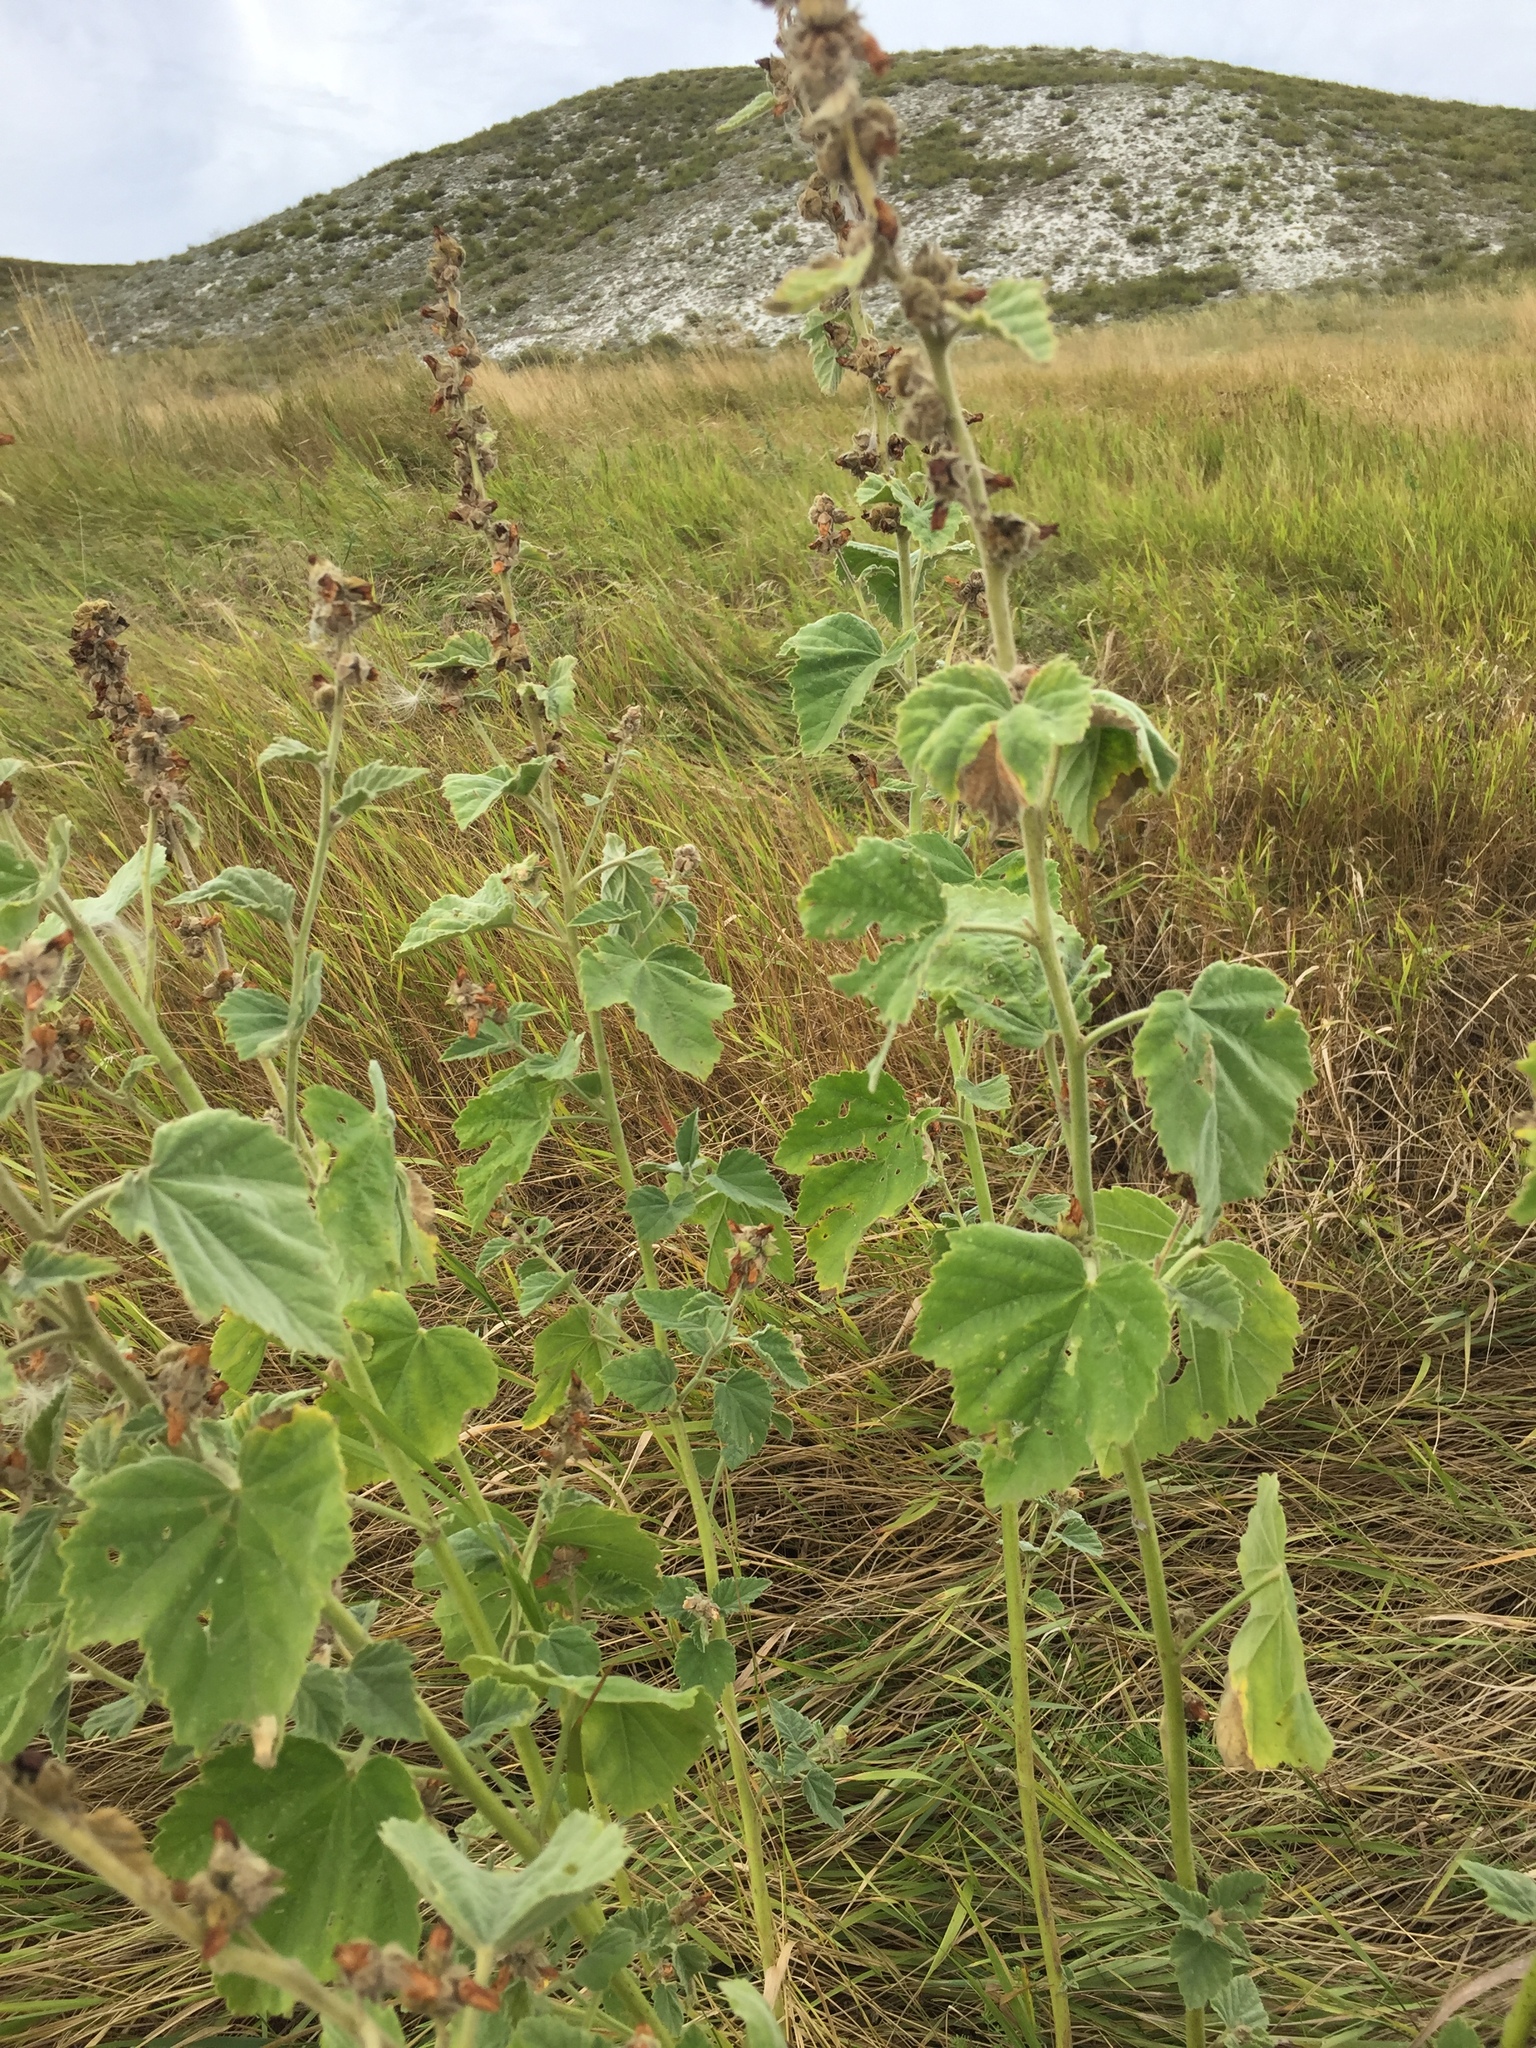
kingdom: Plantae
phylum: Tracheophyta
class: Magnoliopsida
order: Malvales
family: Malvaceae
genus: Althaea
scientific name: Althaea officinalis
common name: Marsh-mallow
